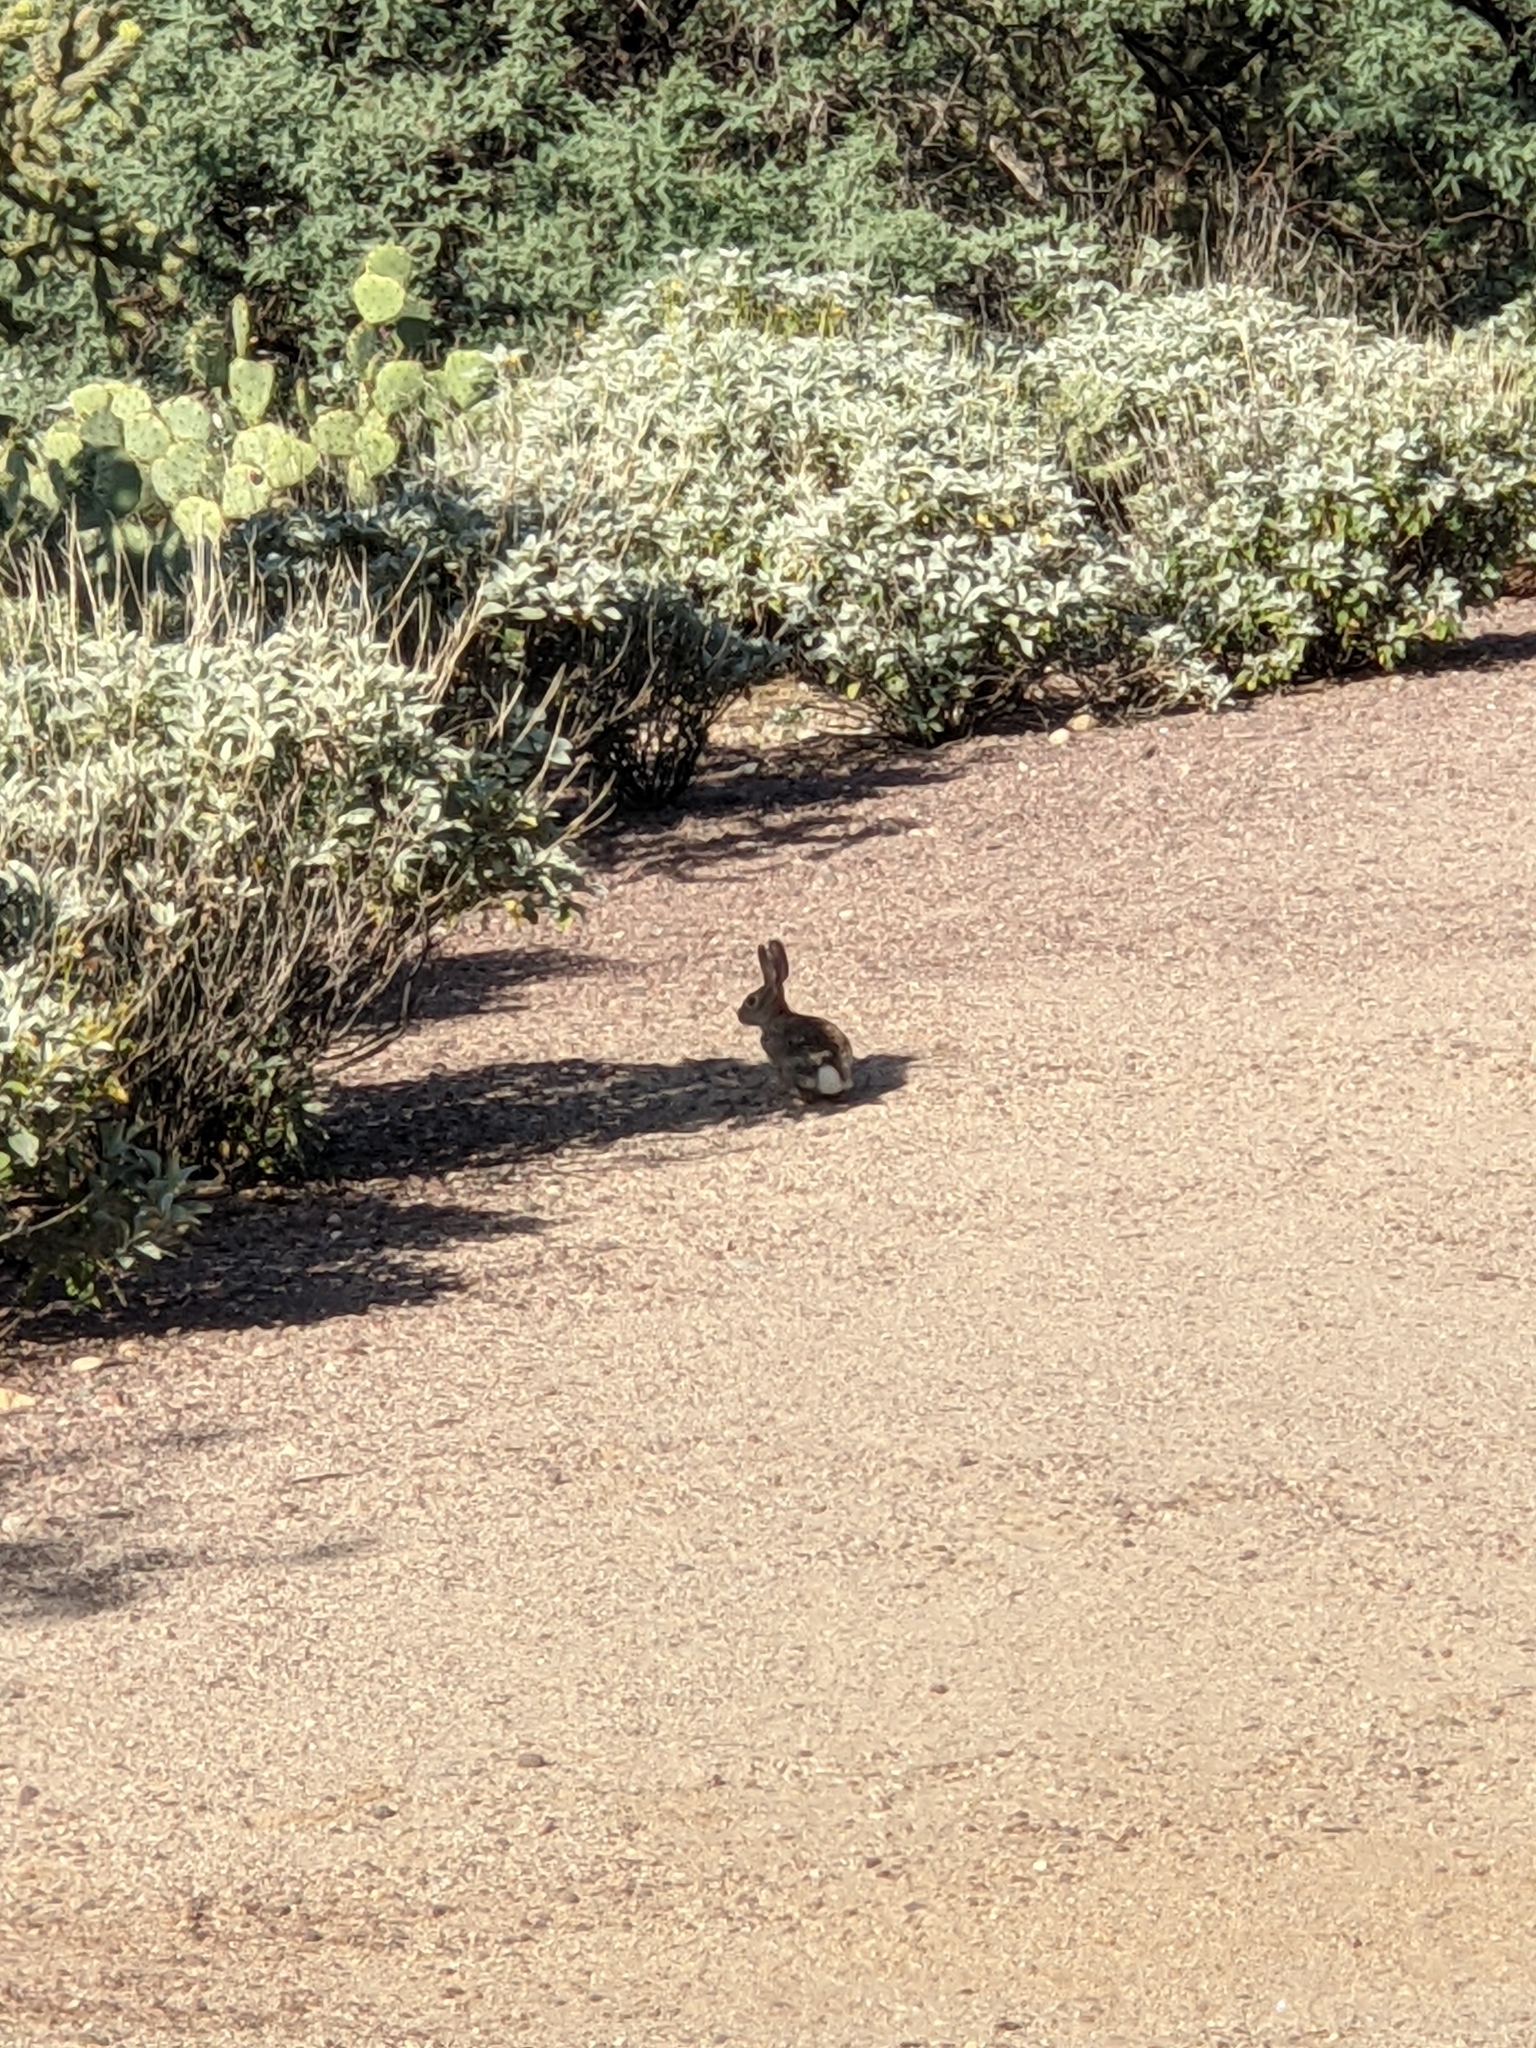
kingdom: Animalia
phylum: Chordata
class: Mammalia
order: Lagomorpha
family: Leporidae
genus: Sylvilagus
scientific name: Sylvilagus audubonii
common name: Desert cottontail
